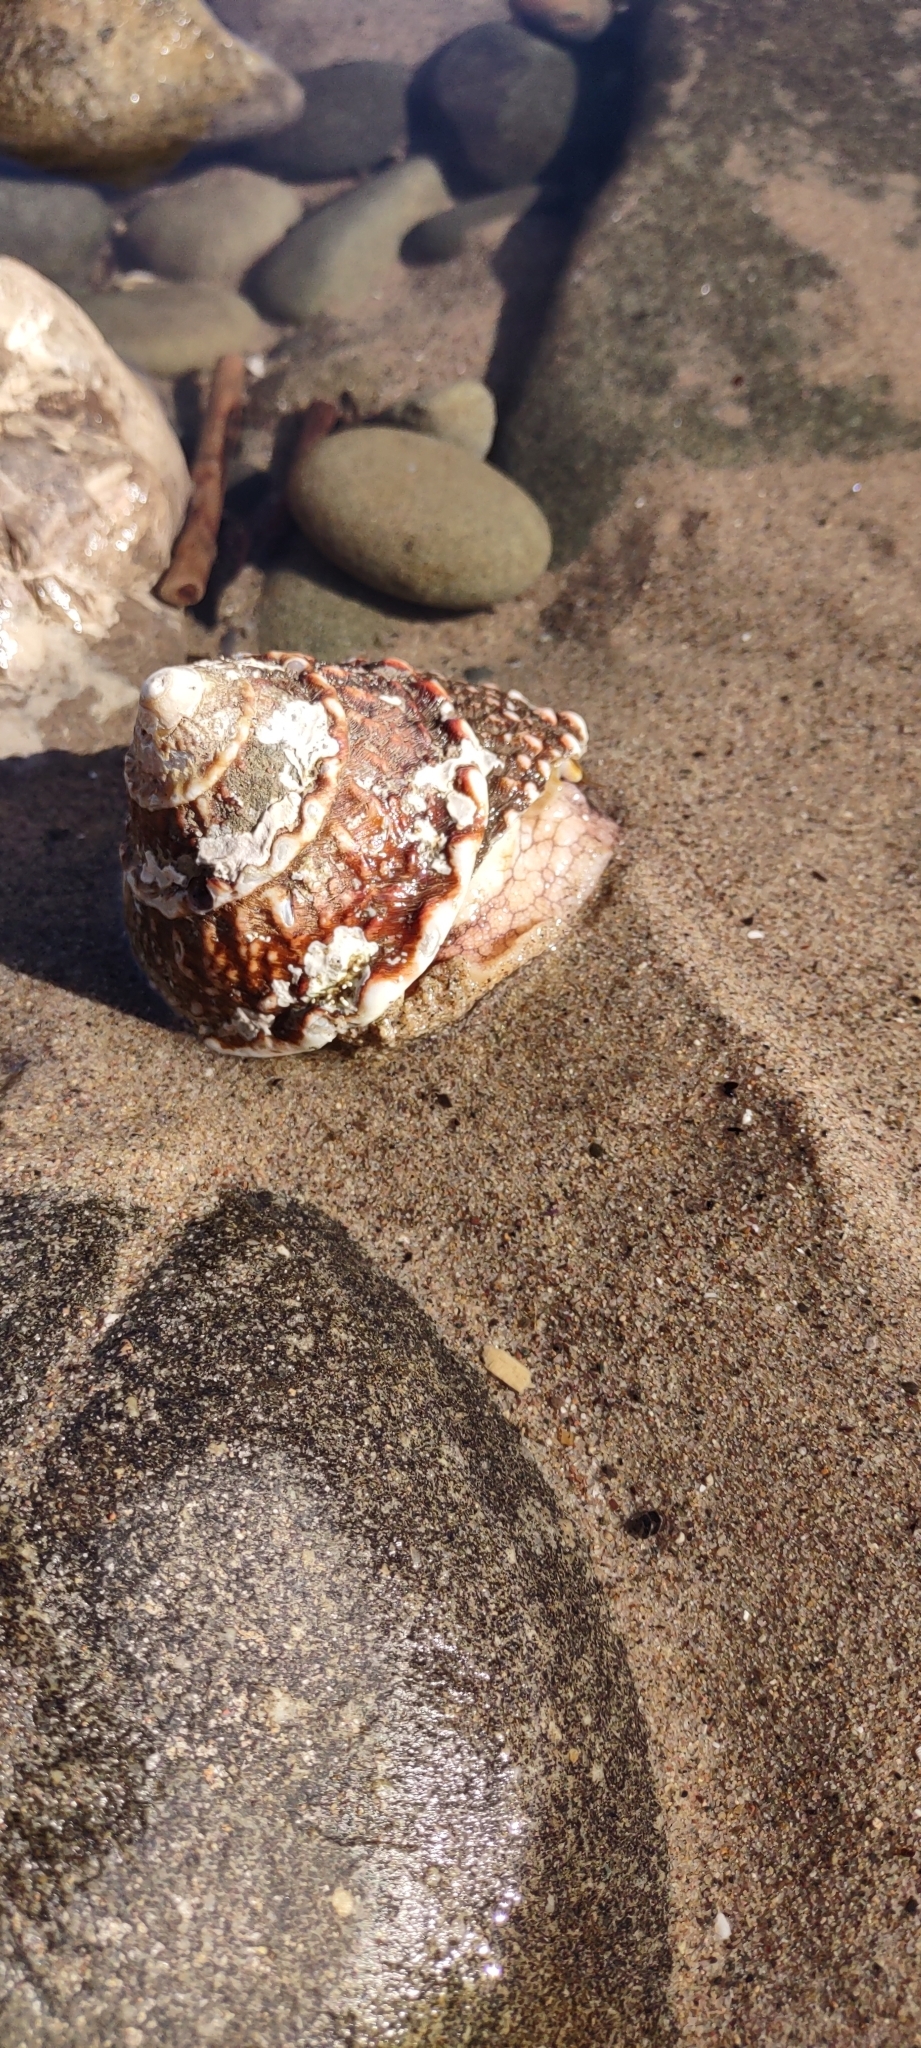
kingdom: Animalia
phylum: Mollusca
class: Gastropoda
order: Trochida
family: Turbinidae
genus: Megastraea
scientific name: Megastraea undosa
